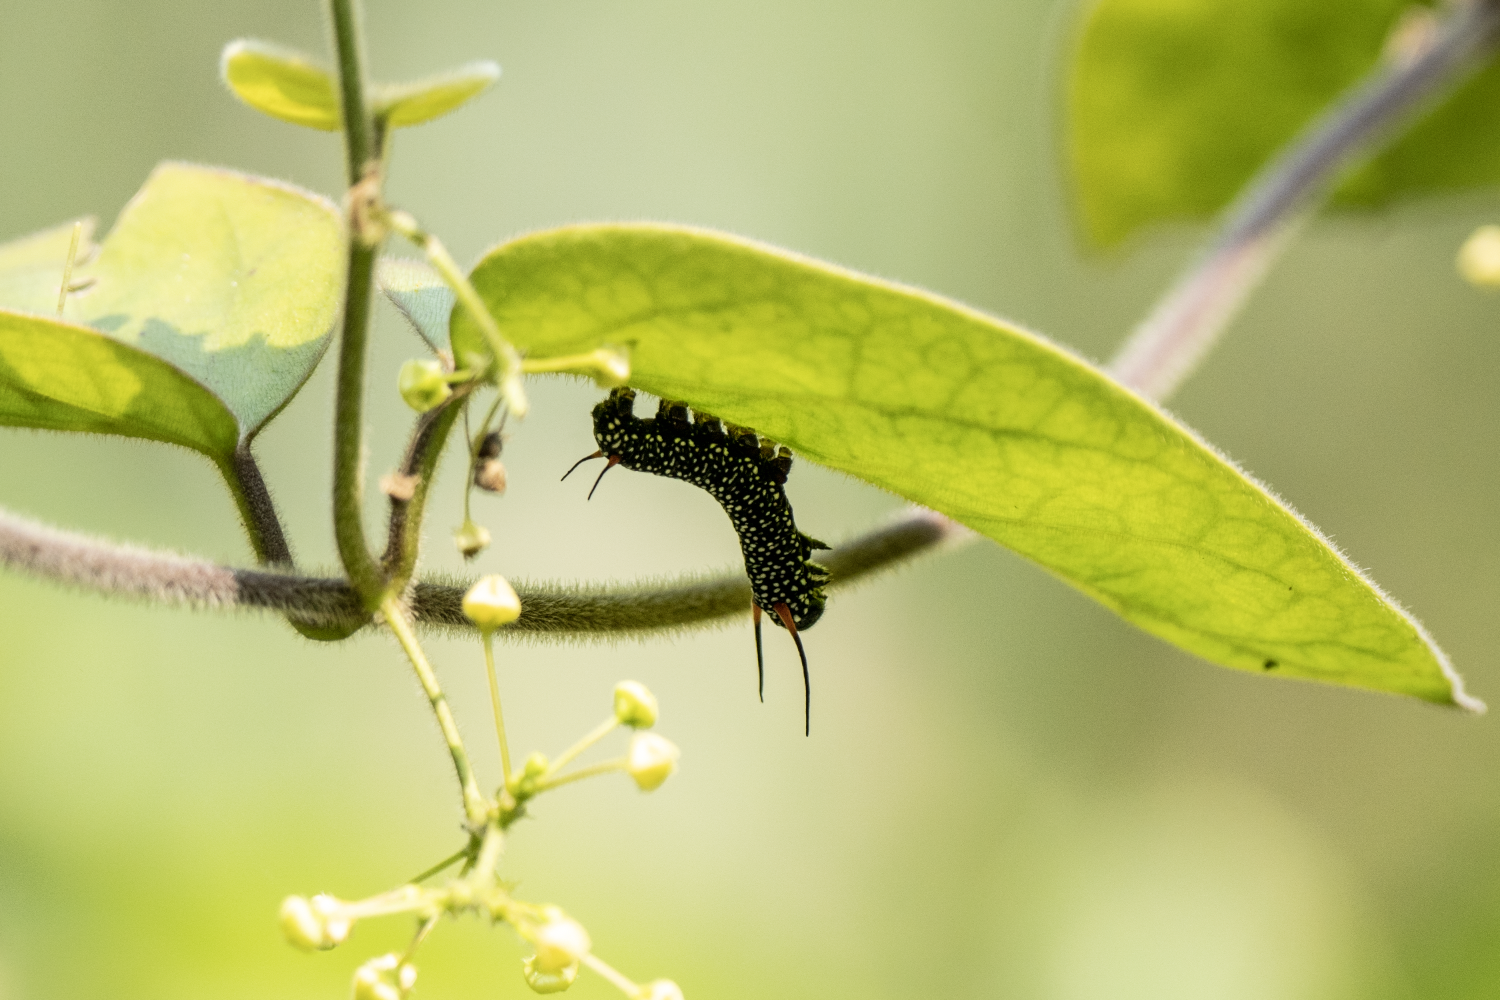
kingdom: Animalia
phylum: Arthropoda
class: Insecta
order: Lepidoptera
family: Nymphalidae
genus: Ideopsis
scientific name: Ideopsis similis
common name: Ceylon blue glassy tiger
